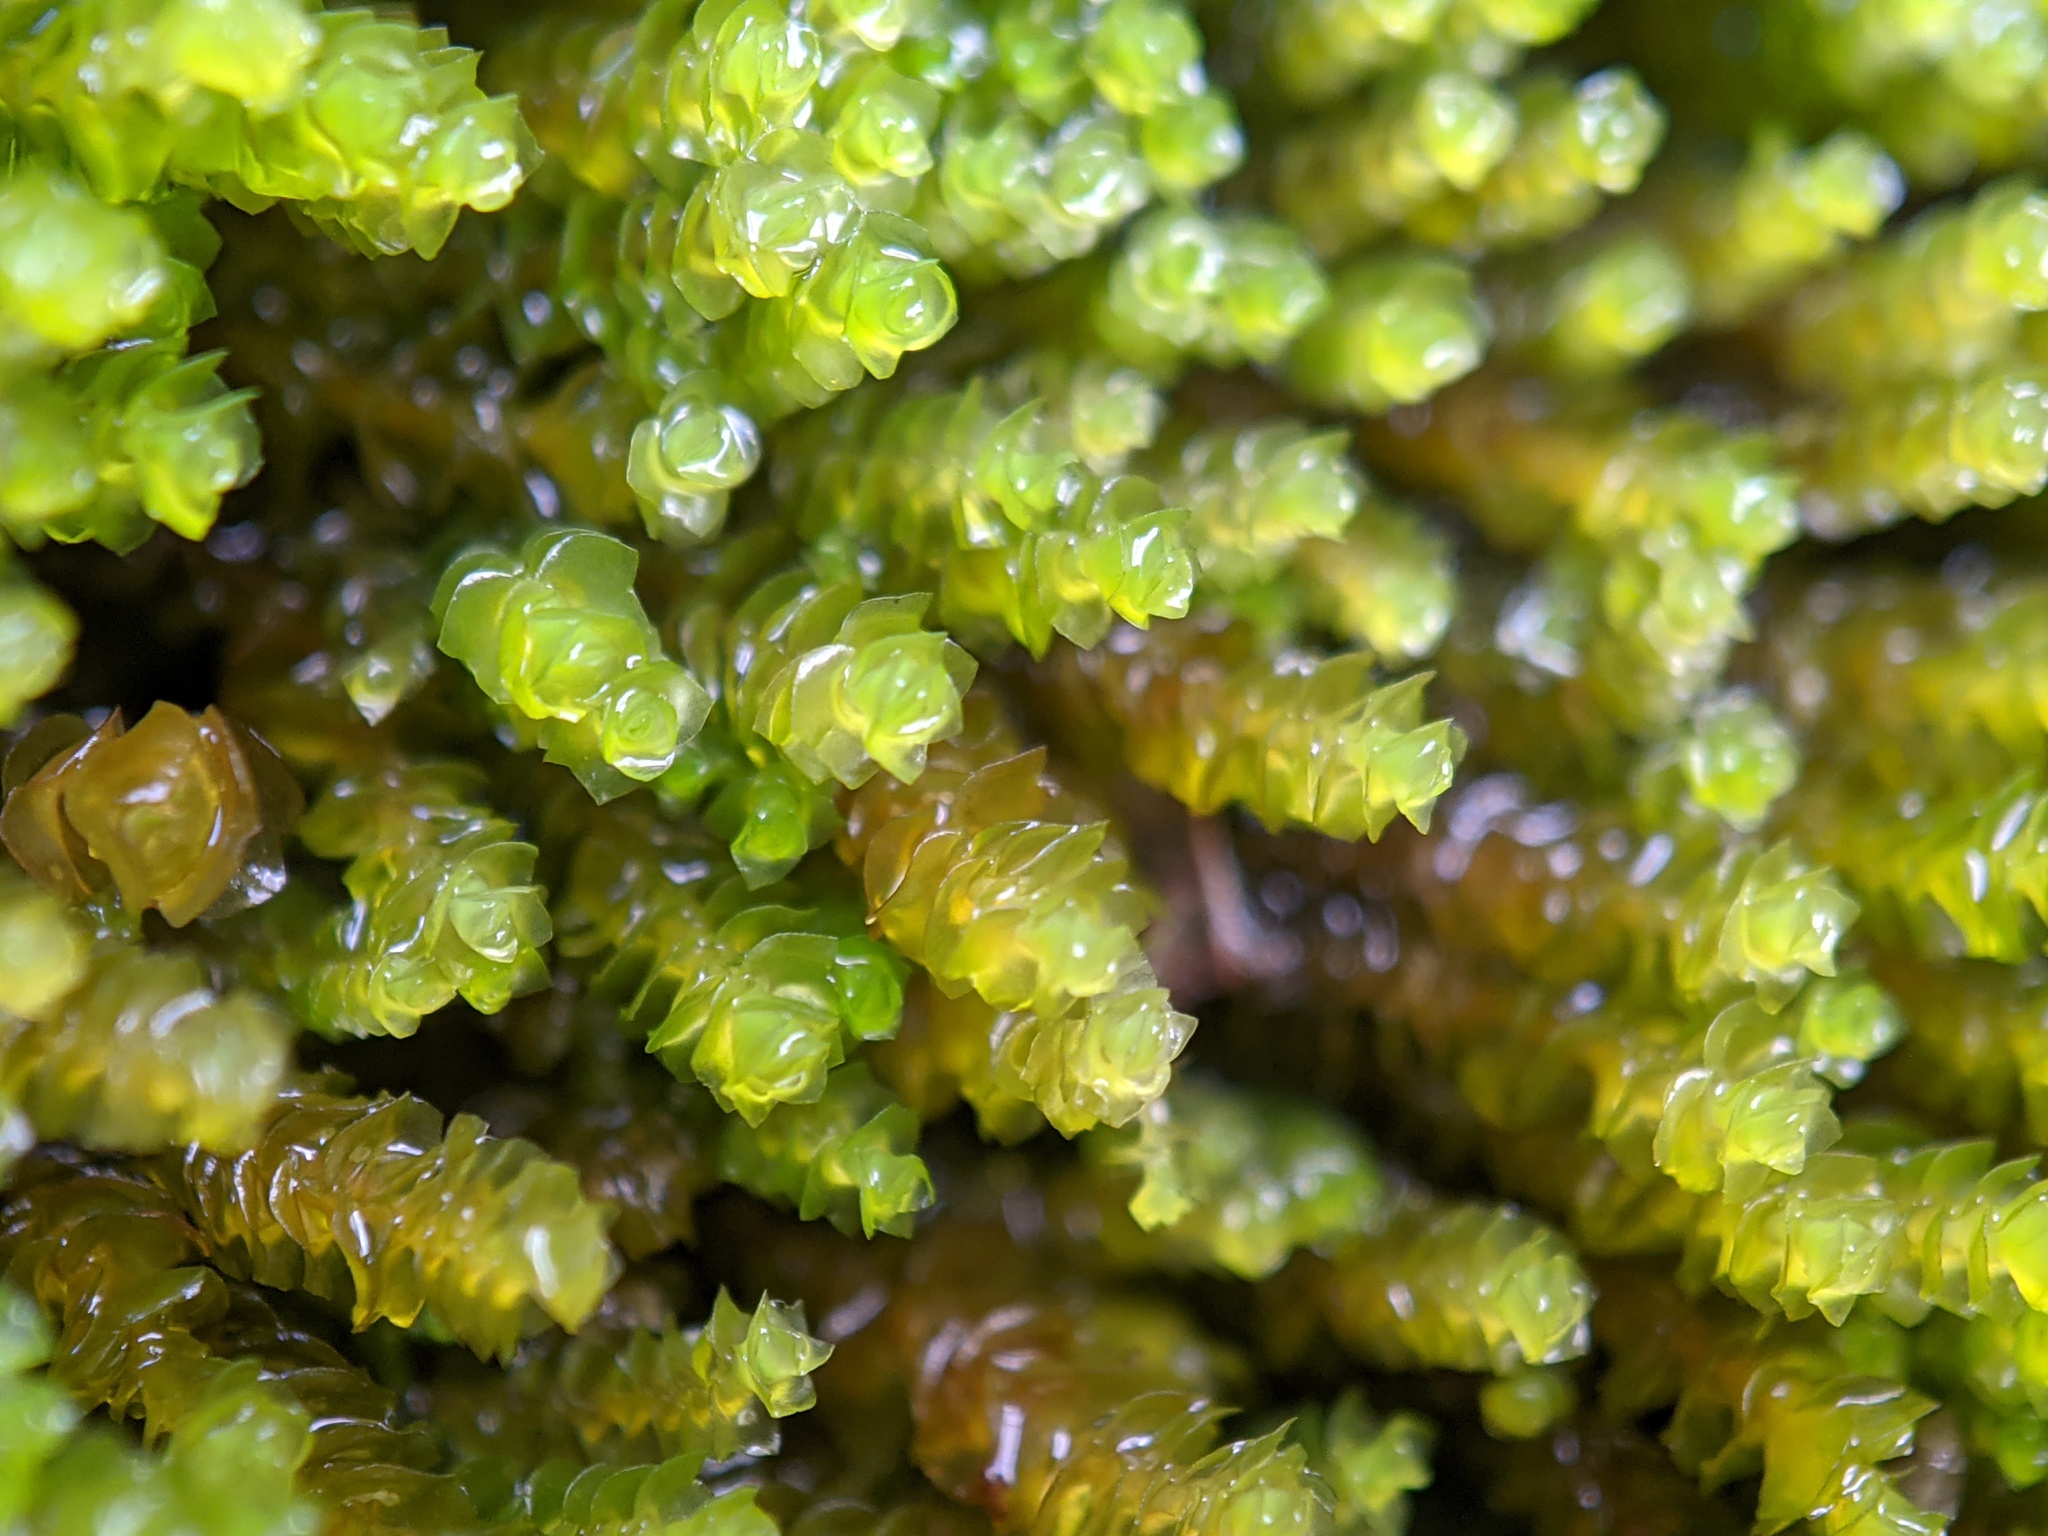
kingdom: Plantae
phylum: Marchantiophyta
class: Jungermanniopsida
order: Jungermanniales
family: Gymnomitriaceae
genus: Marsupella
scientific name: Marsupella emarginata
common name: Notched rustwort
